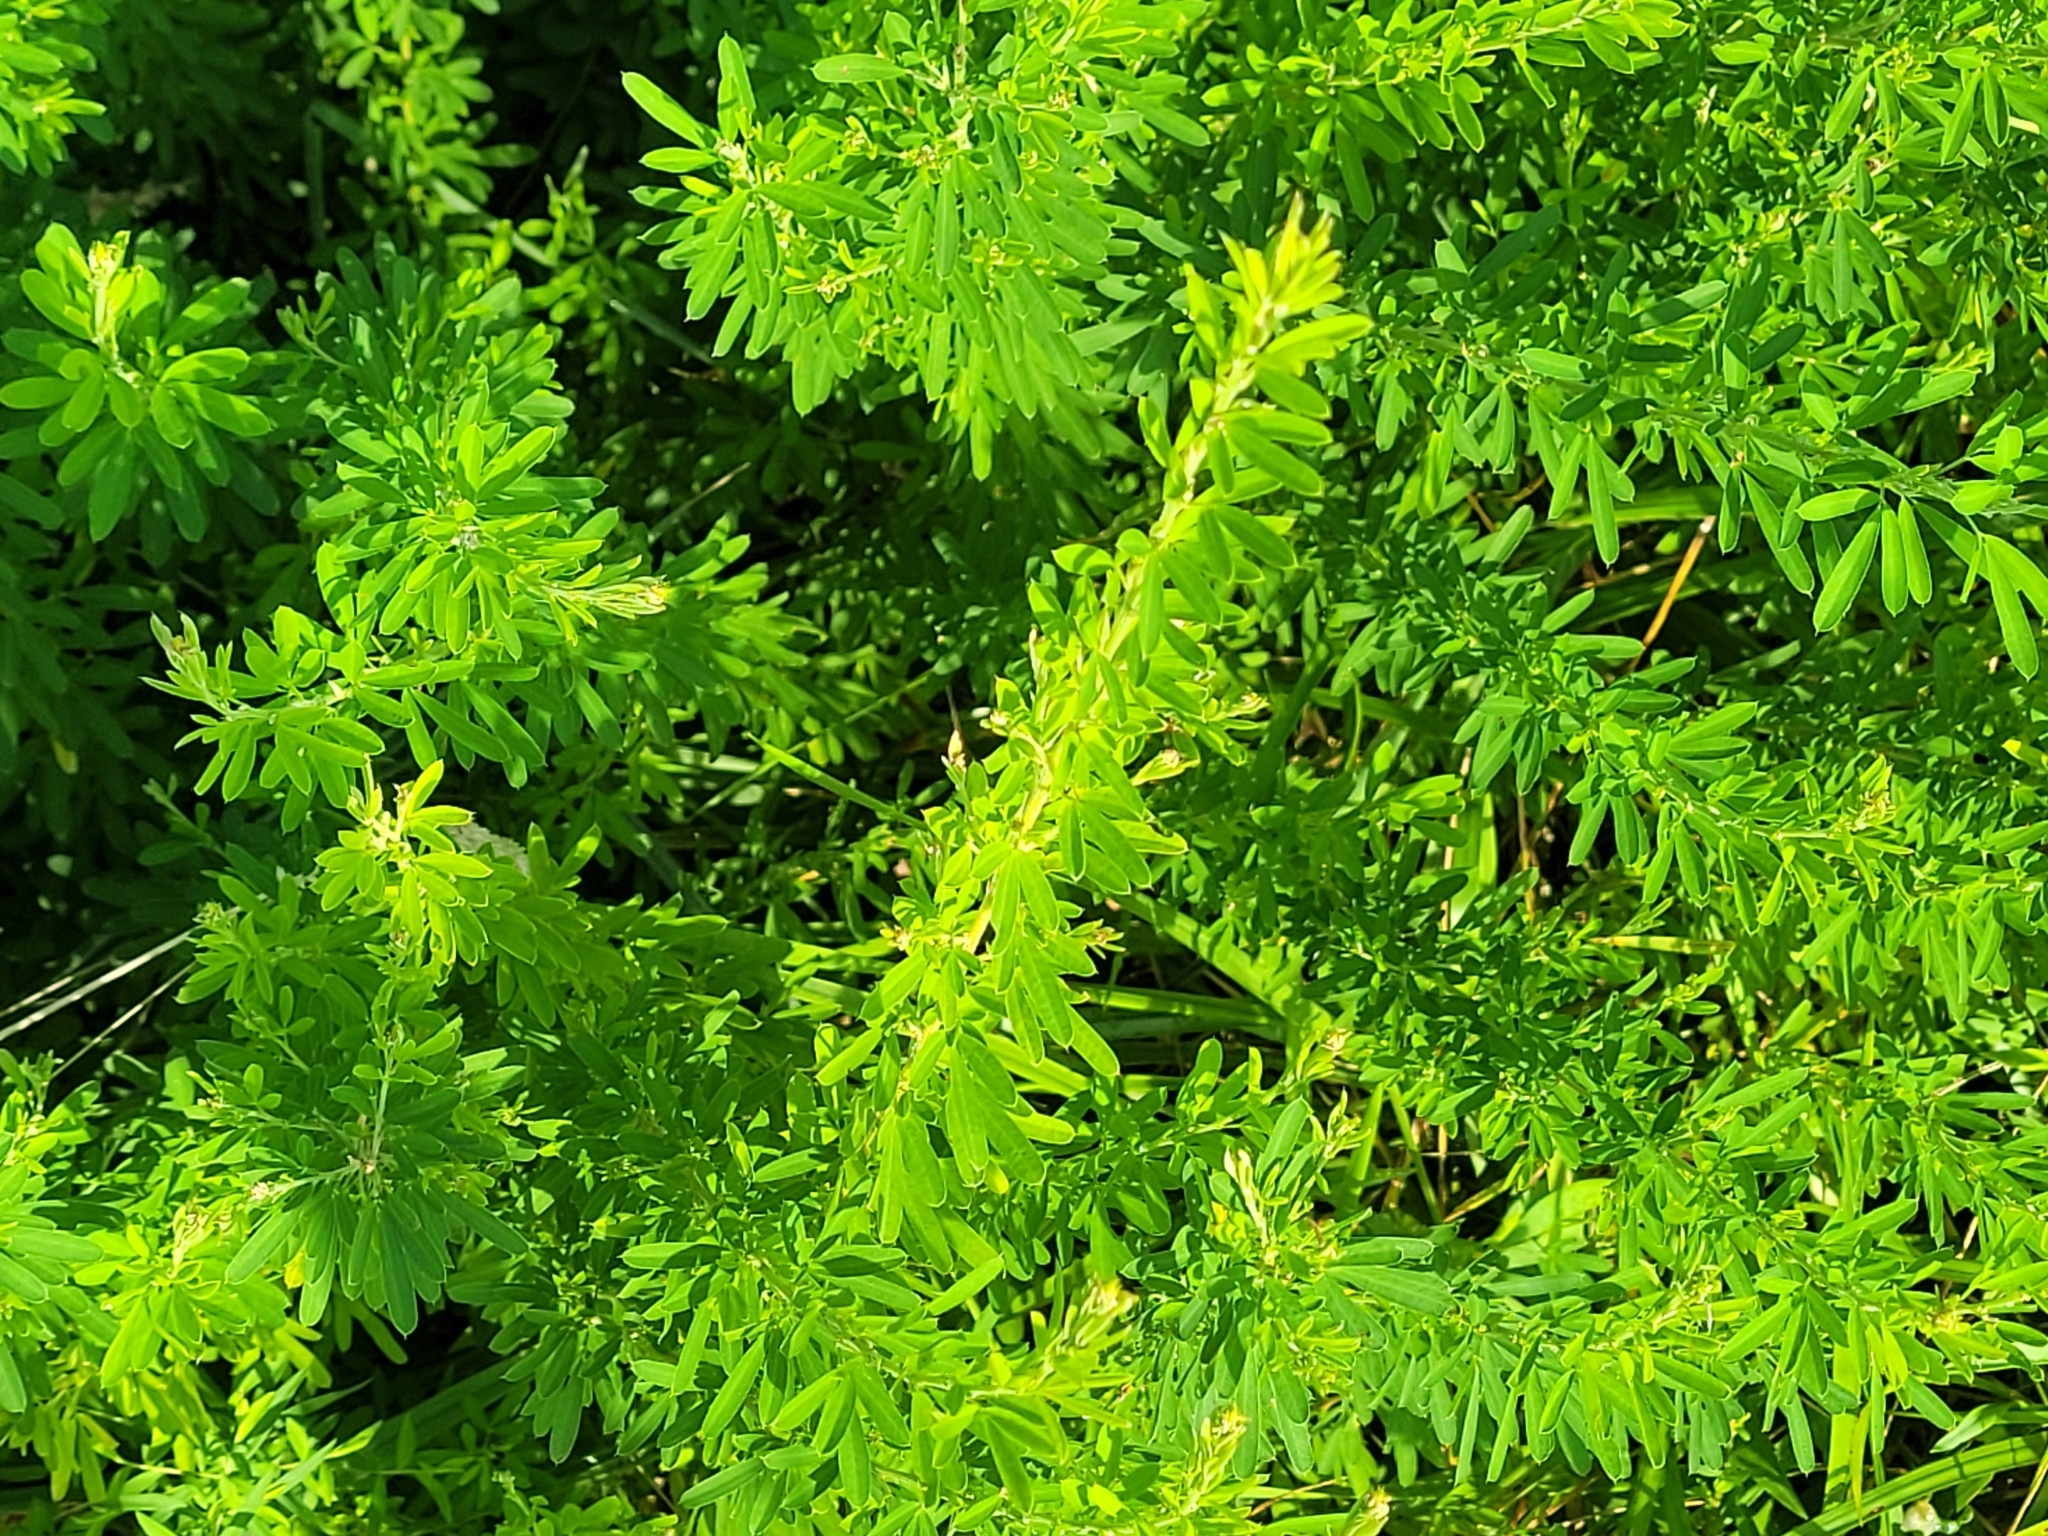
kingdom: Plantae
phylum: Tracheophyta
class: Magnoliopsida
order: Fabales
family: Fabaceae
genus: Lespedeza
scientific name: Lespedeza cuneata
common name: Chinese bush-clover
